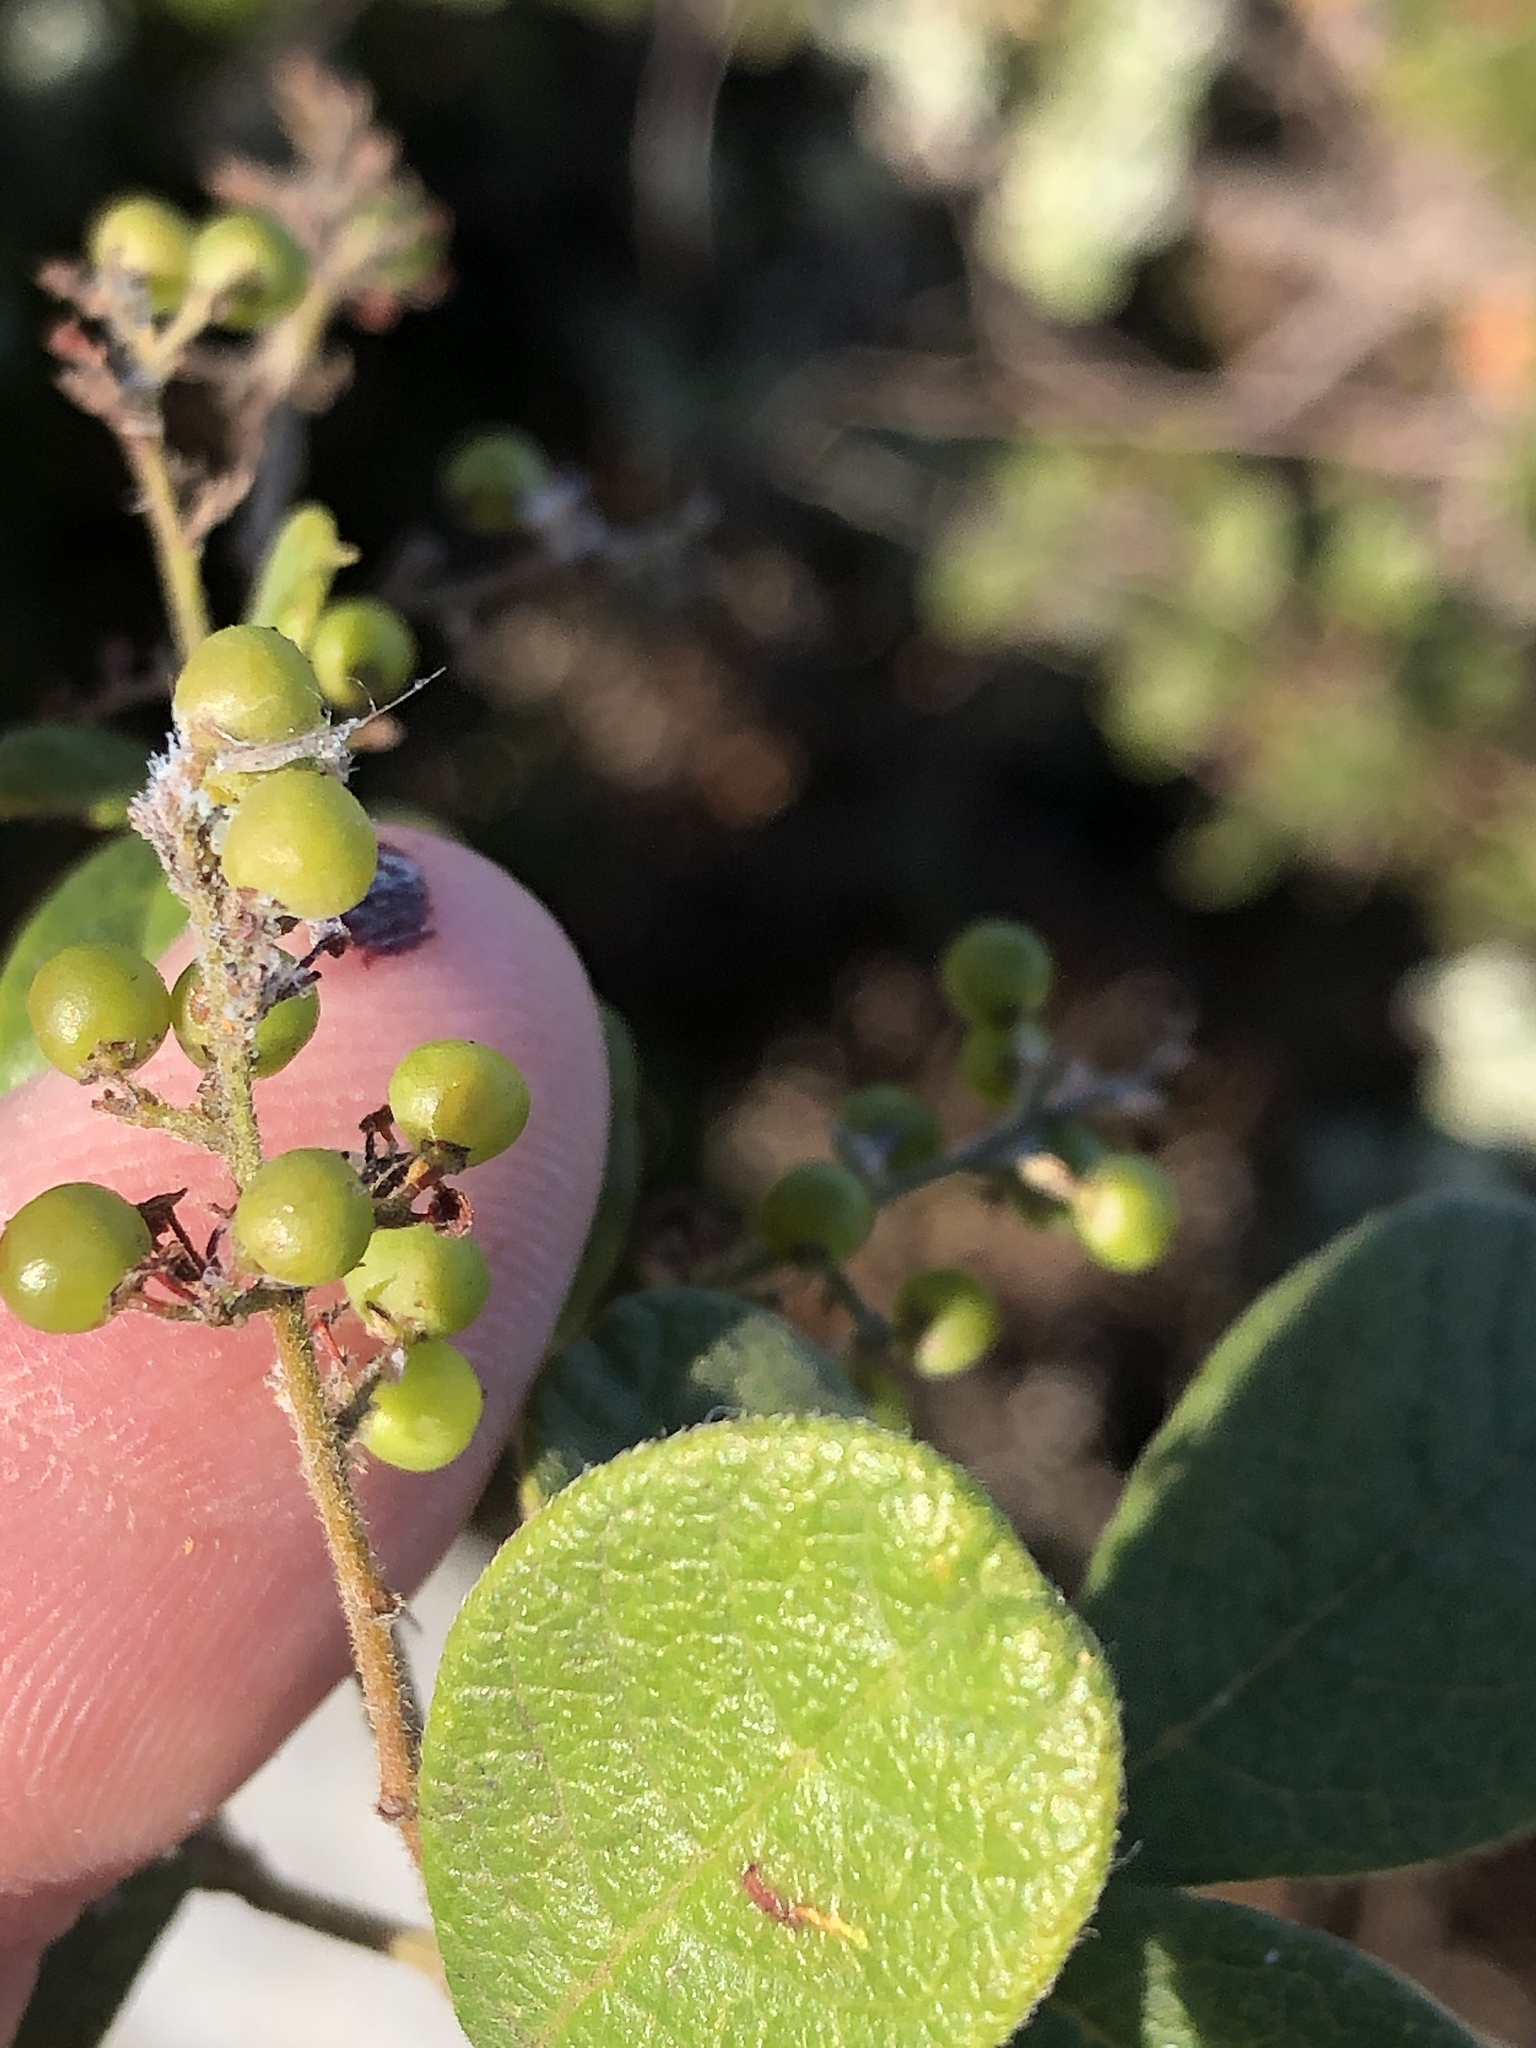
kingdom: Plantae
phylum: Tracheophyta
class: Magnoliopsida
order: Sapindales
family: Anacardiaceae
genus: Searsia
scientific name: Searsia pyroides
